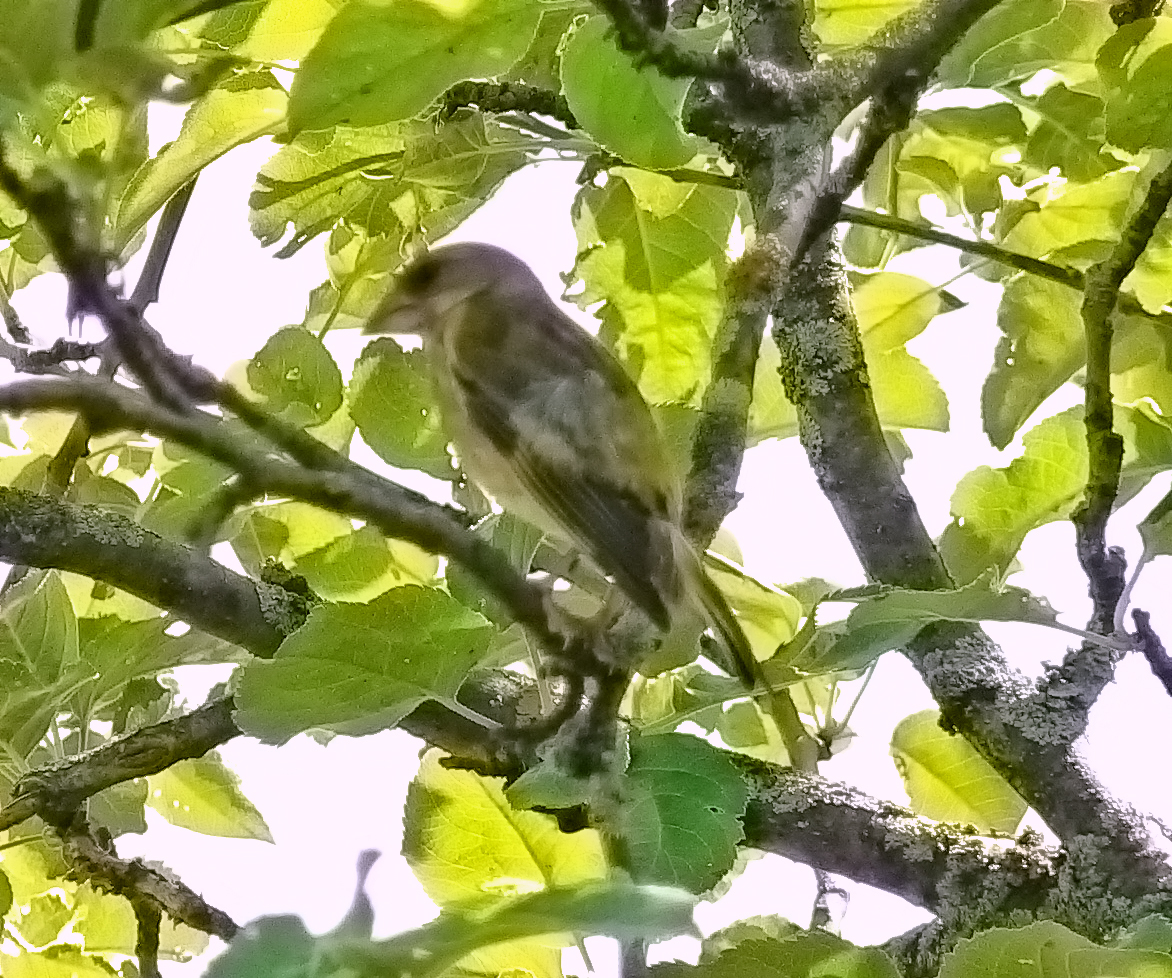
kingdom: Plantae
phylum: Tracheophyta
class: Liliopsida
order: Poales
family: Poaceae
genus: Chloris
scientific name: Chloris chloris
